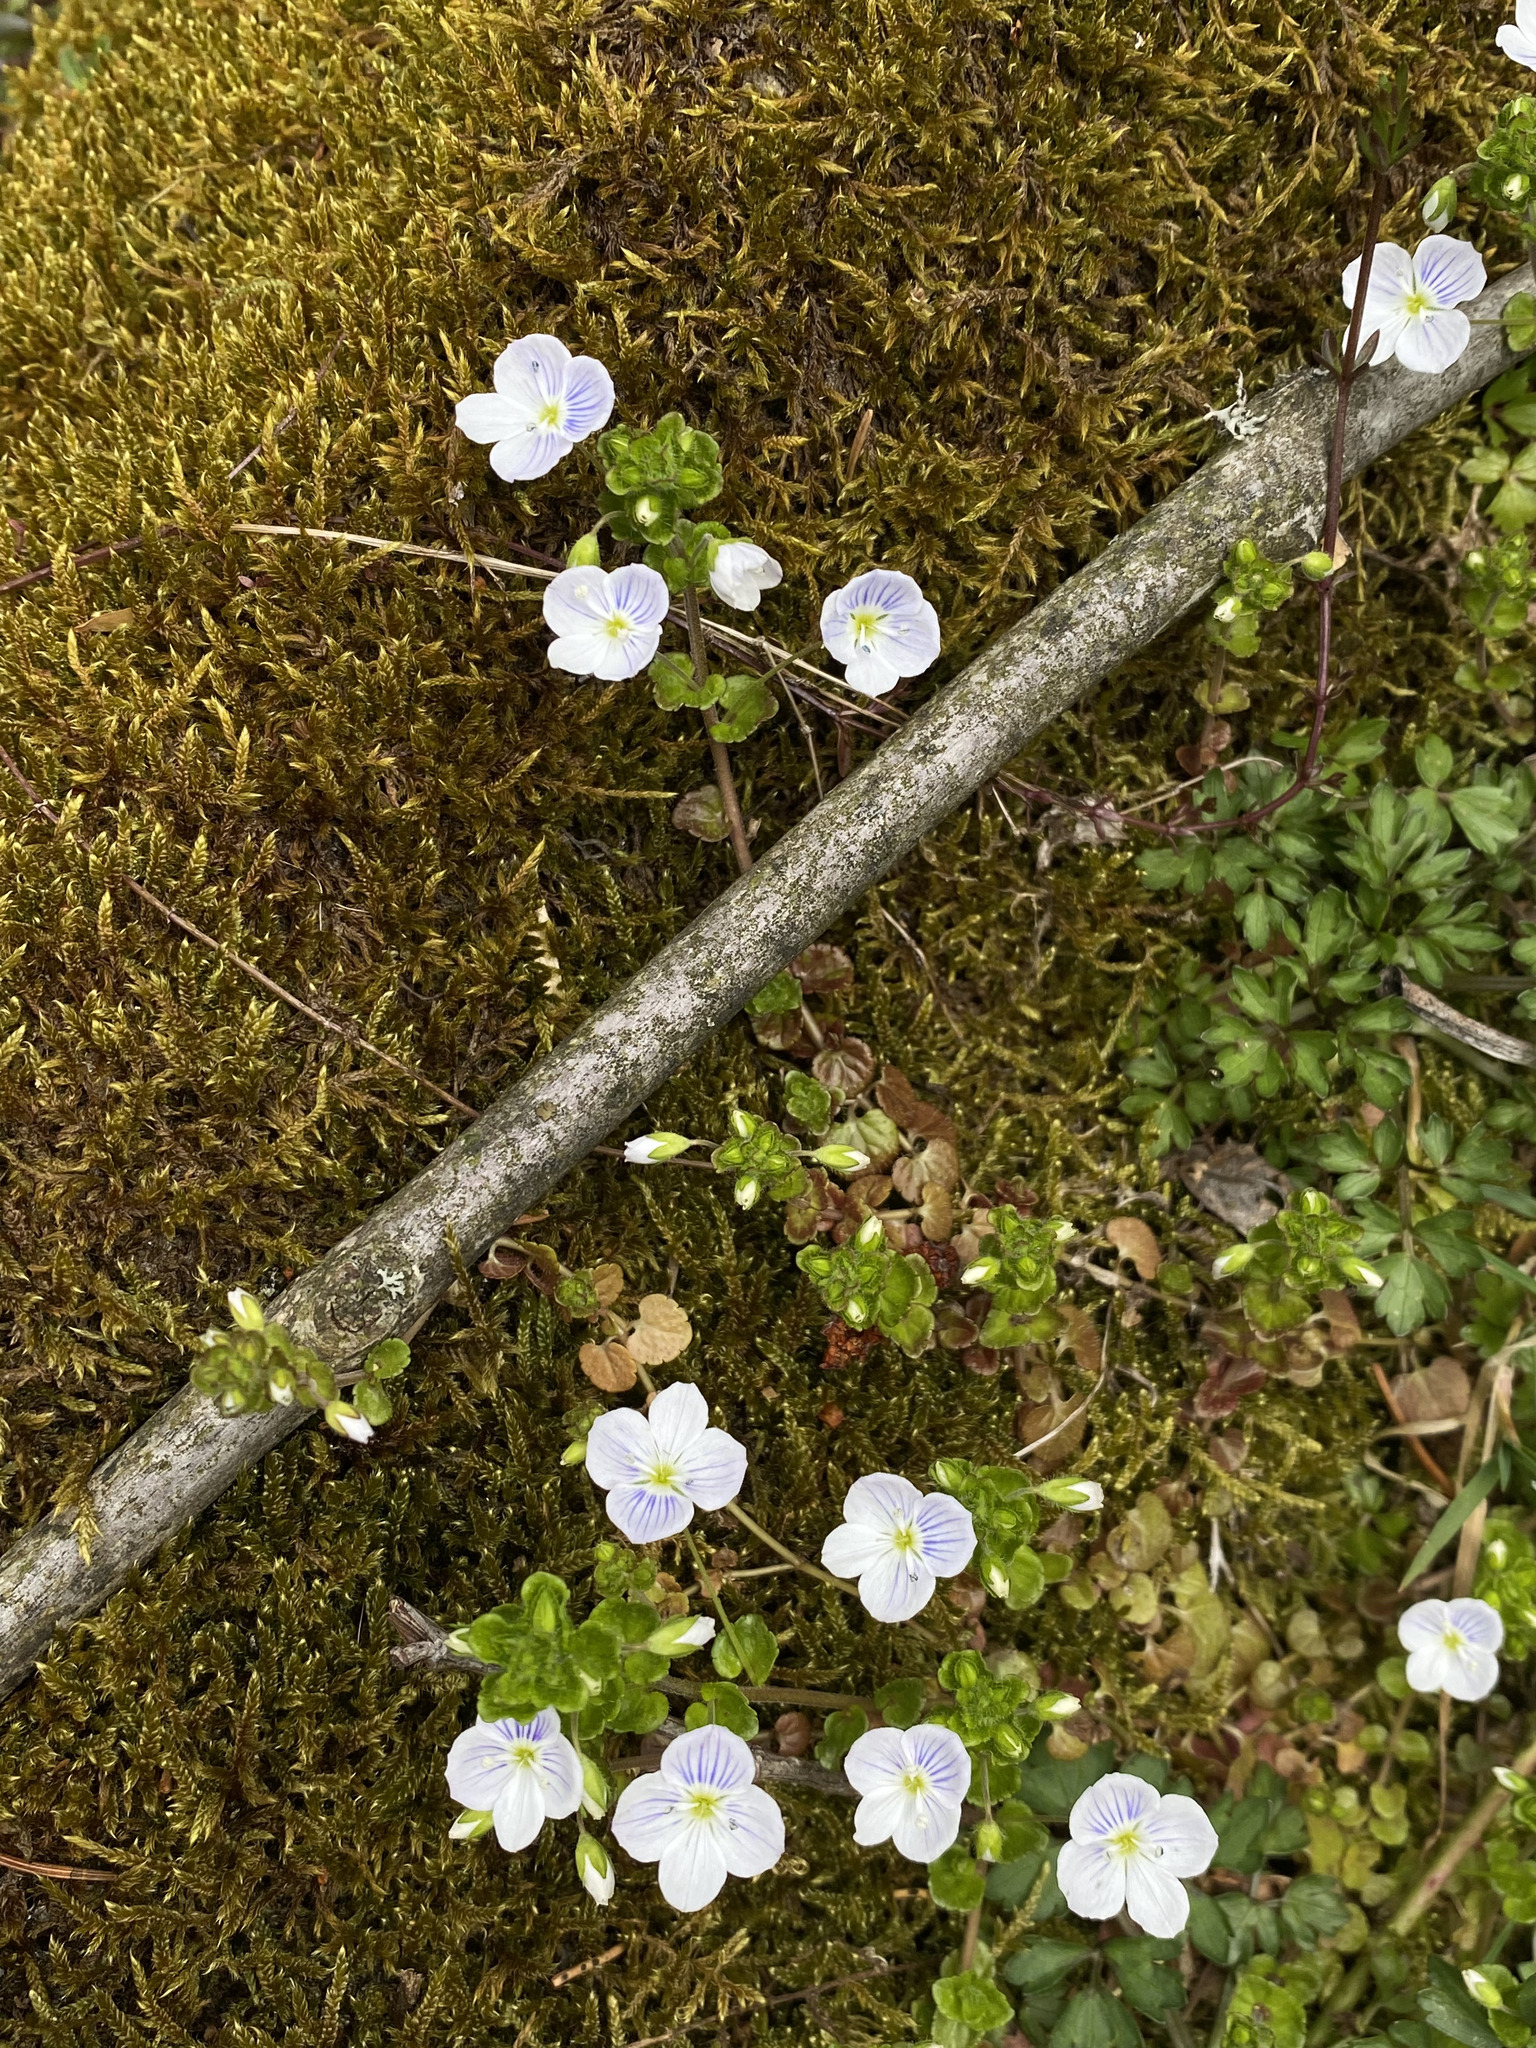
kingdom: Plantae
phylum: Tracheophyta
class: Magnoliopsida
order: Lamiales
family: Plantaginaceae
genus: Veronica
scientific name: Veronica filiformis
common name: Slender speedwell
